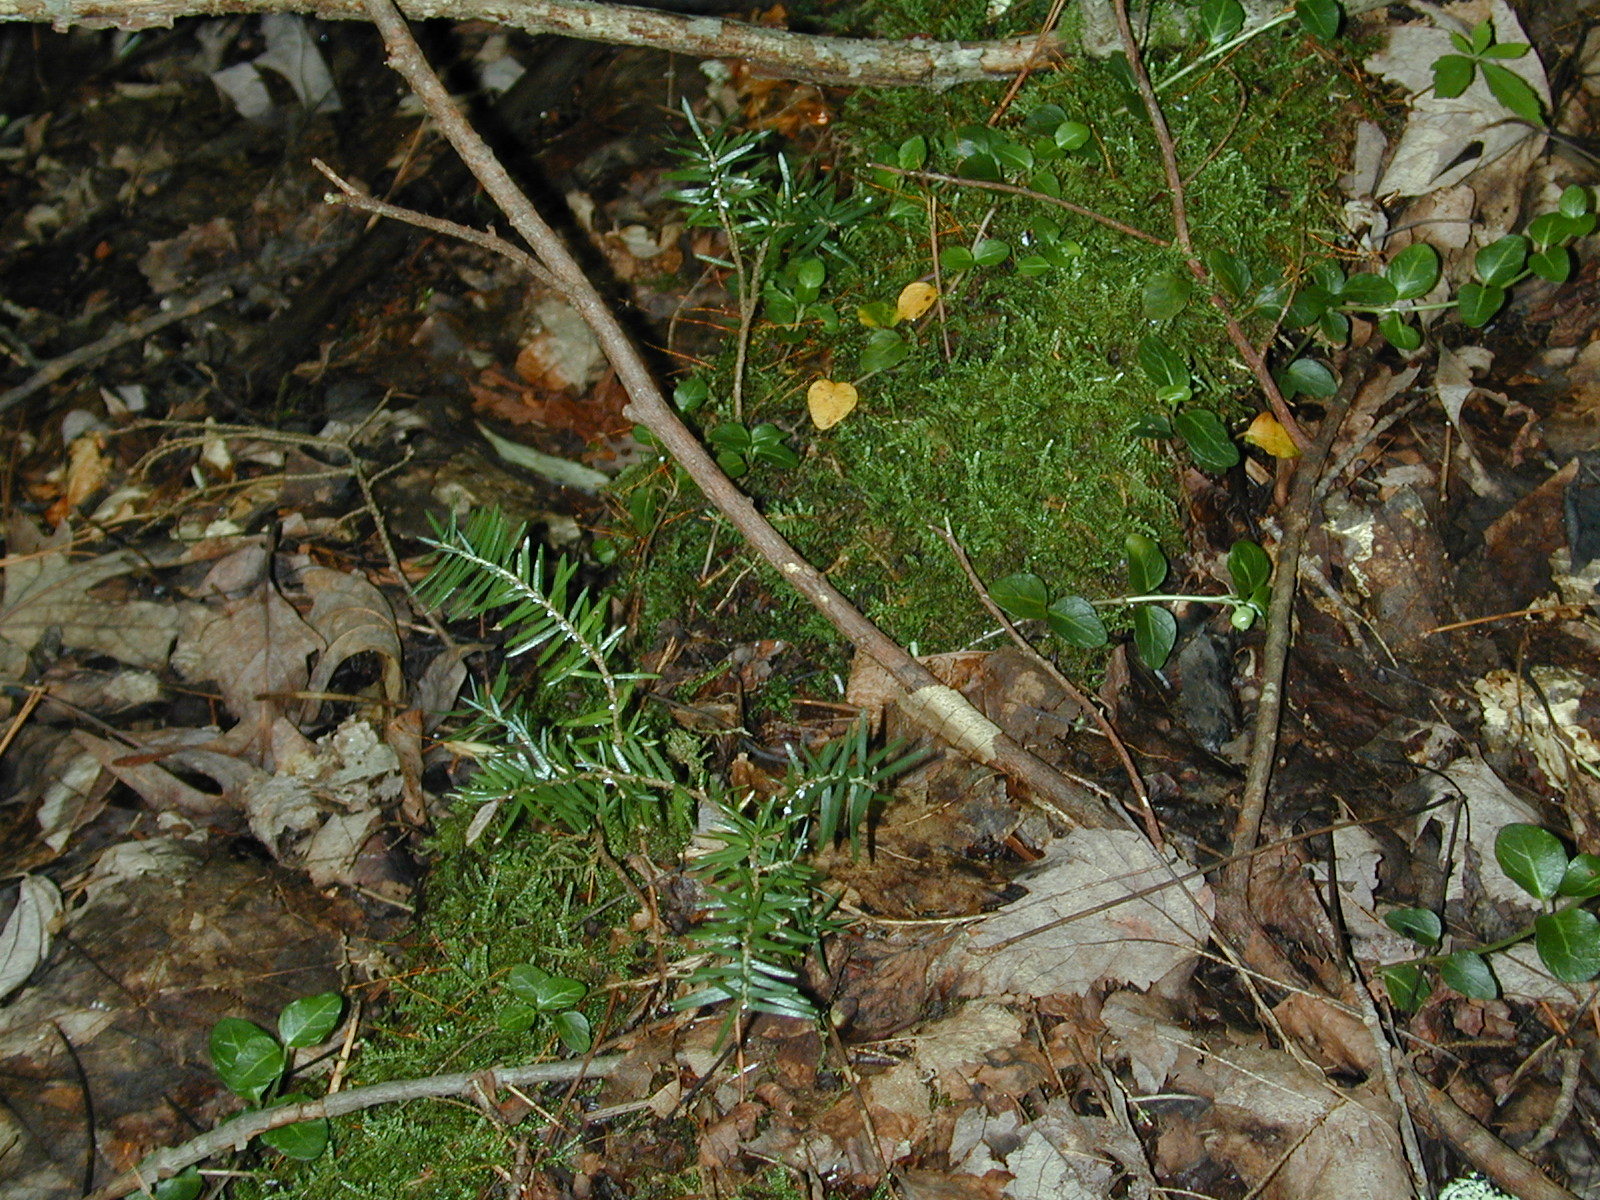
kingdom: Plantae
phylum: Tracheophyta
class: Pinopsida
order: Pinales
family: Pinaceae
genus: Tsuga
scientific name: Tsuga canadensis
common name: Eastern hemlock
